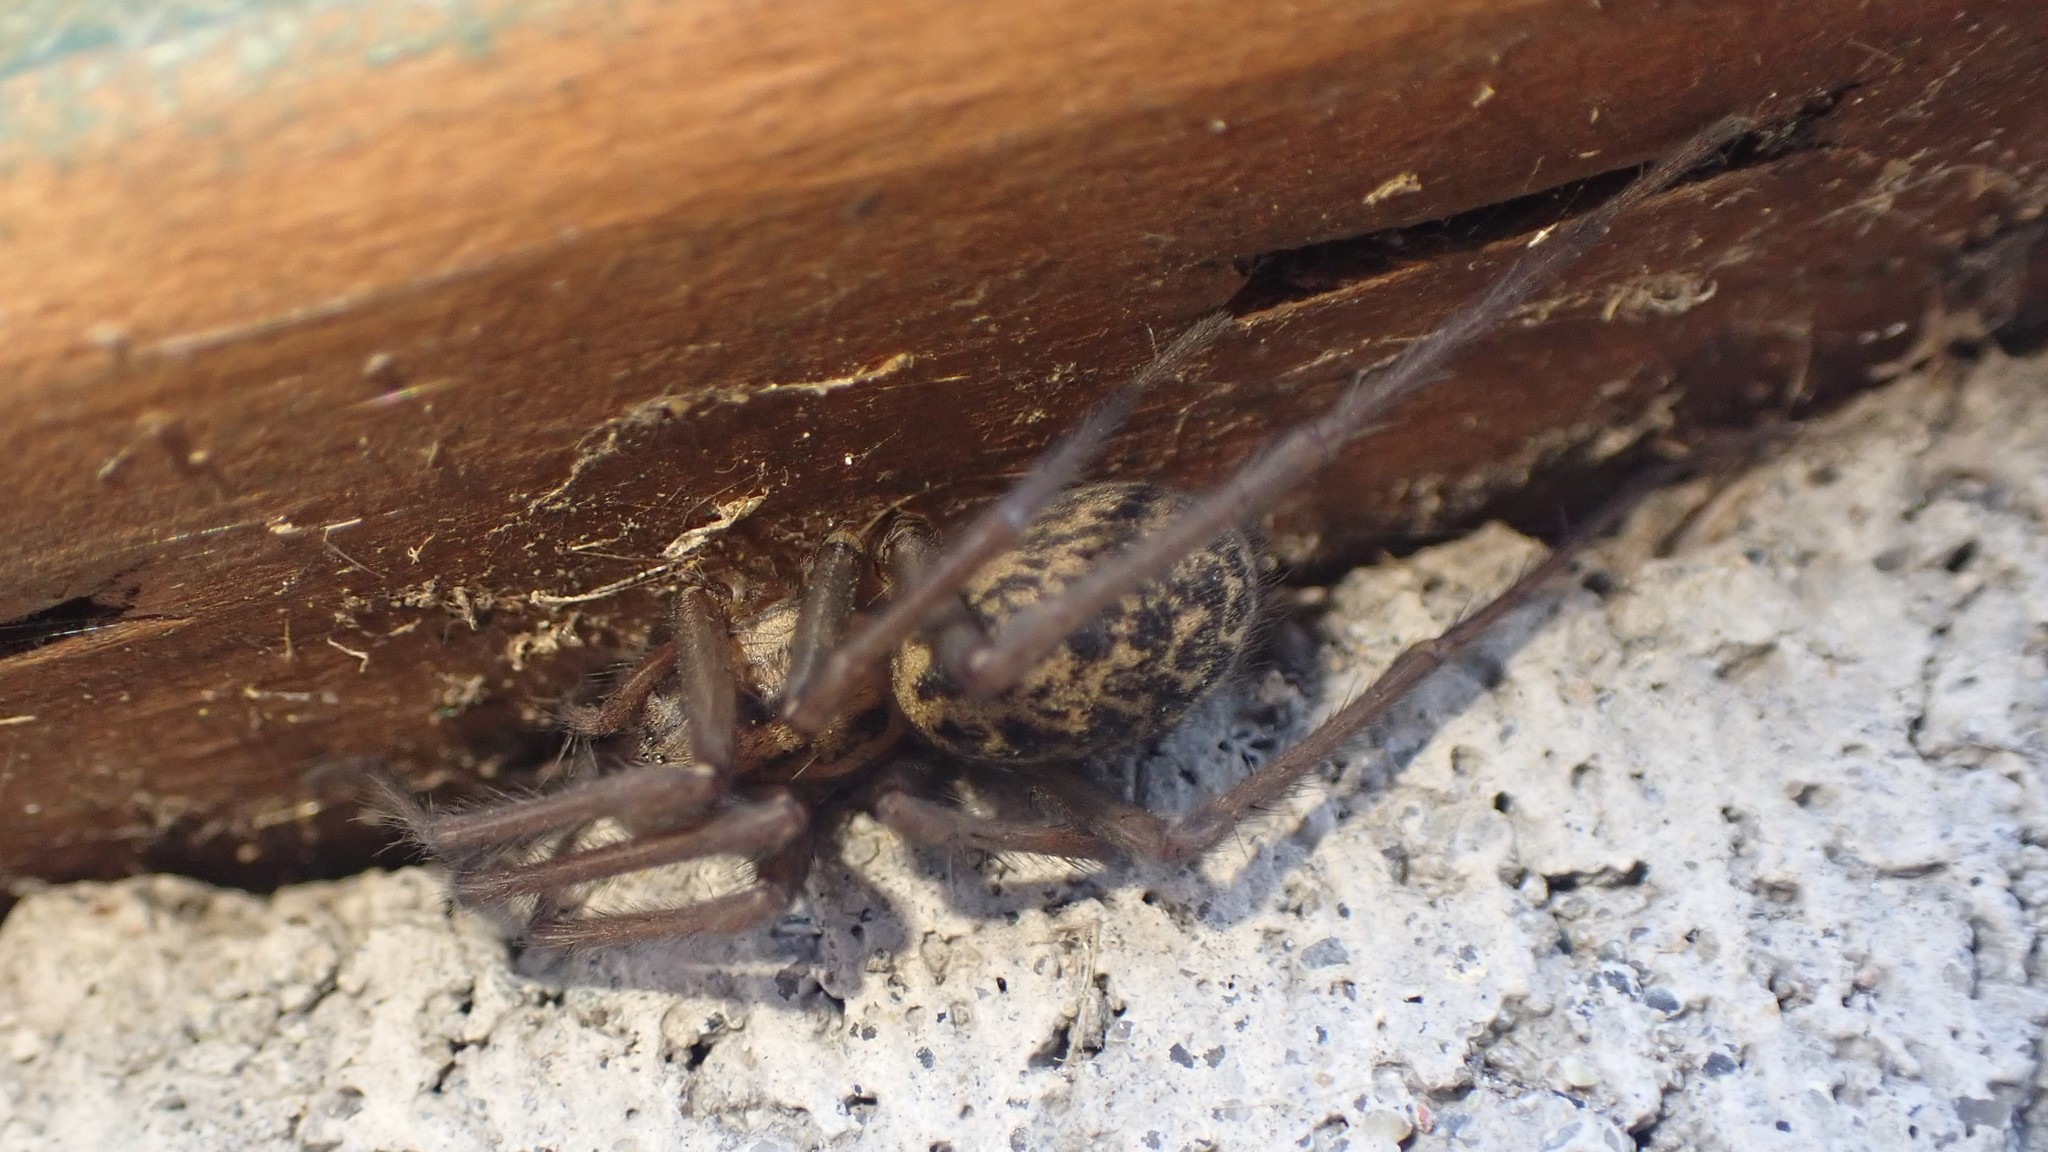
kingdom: Animalia
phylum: Arthropoda
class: Arachnida
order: Araneae
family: Agelenidae
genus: Eratigena
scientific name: Eratigena duellica
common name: Giant house spider
